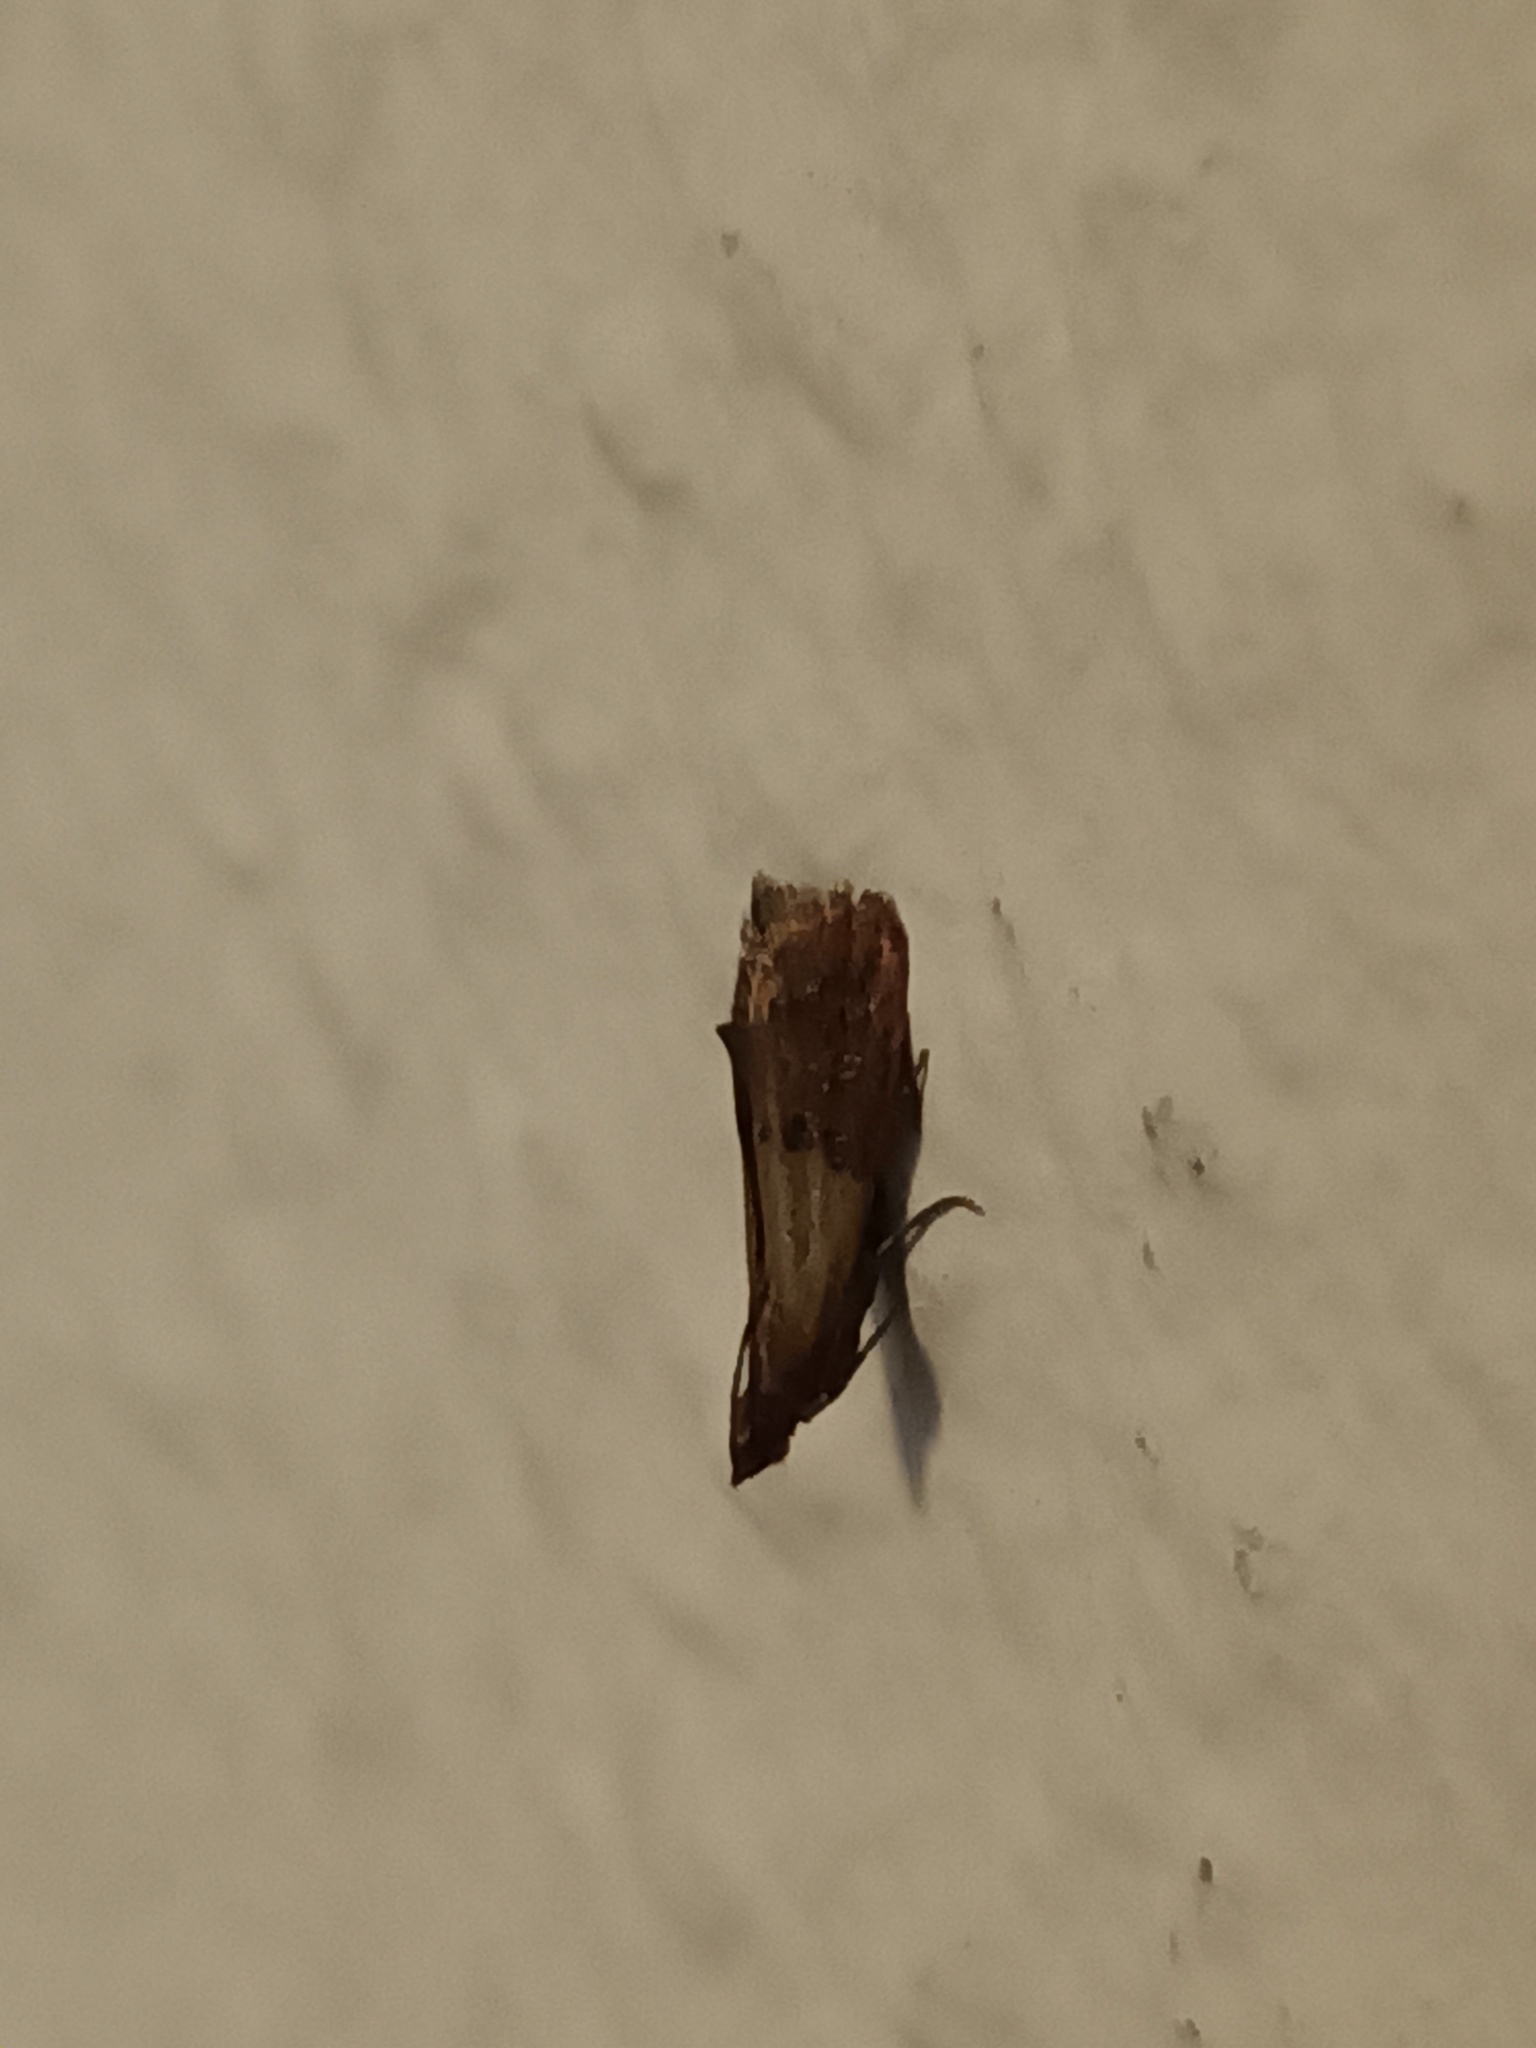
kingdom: Animalia
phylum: Arthropoda
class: Insecta
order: Lepidoptera
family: Pyralidae
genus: Plodia
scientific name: Plodia interpunctella
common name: Indian meal moth
